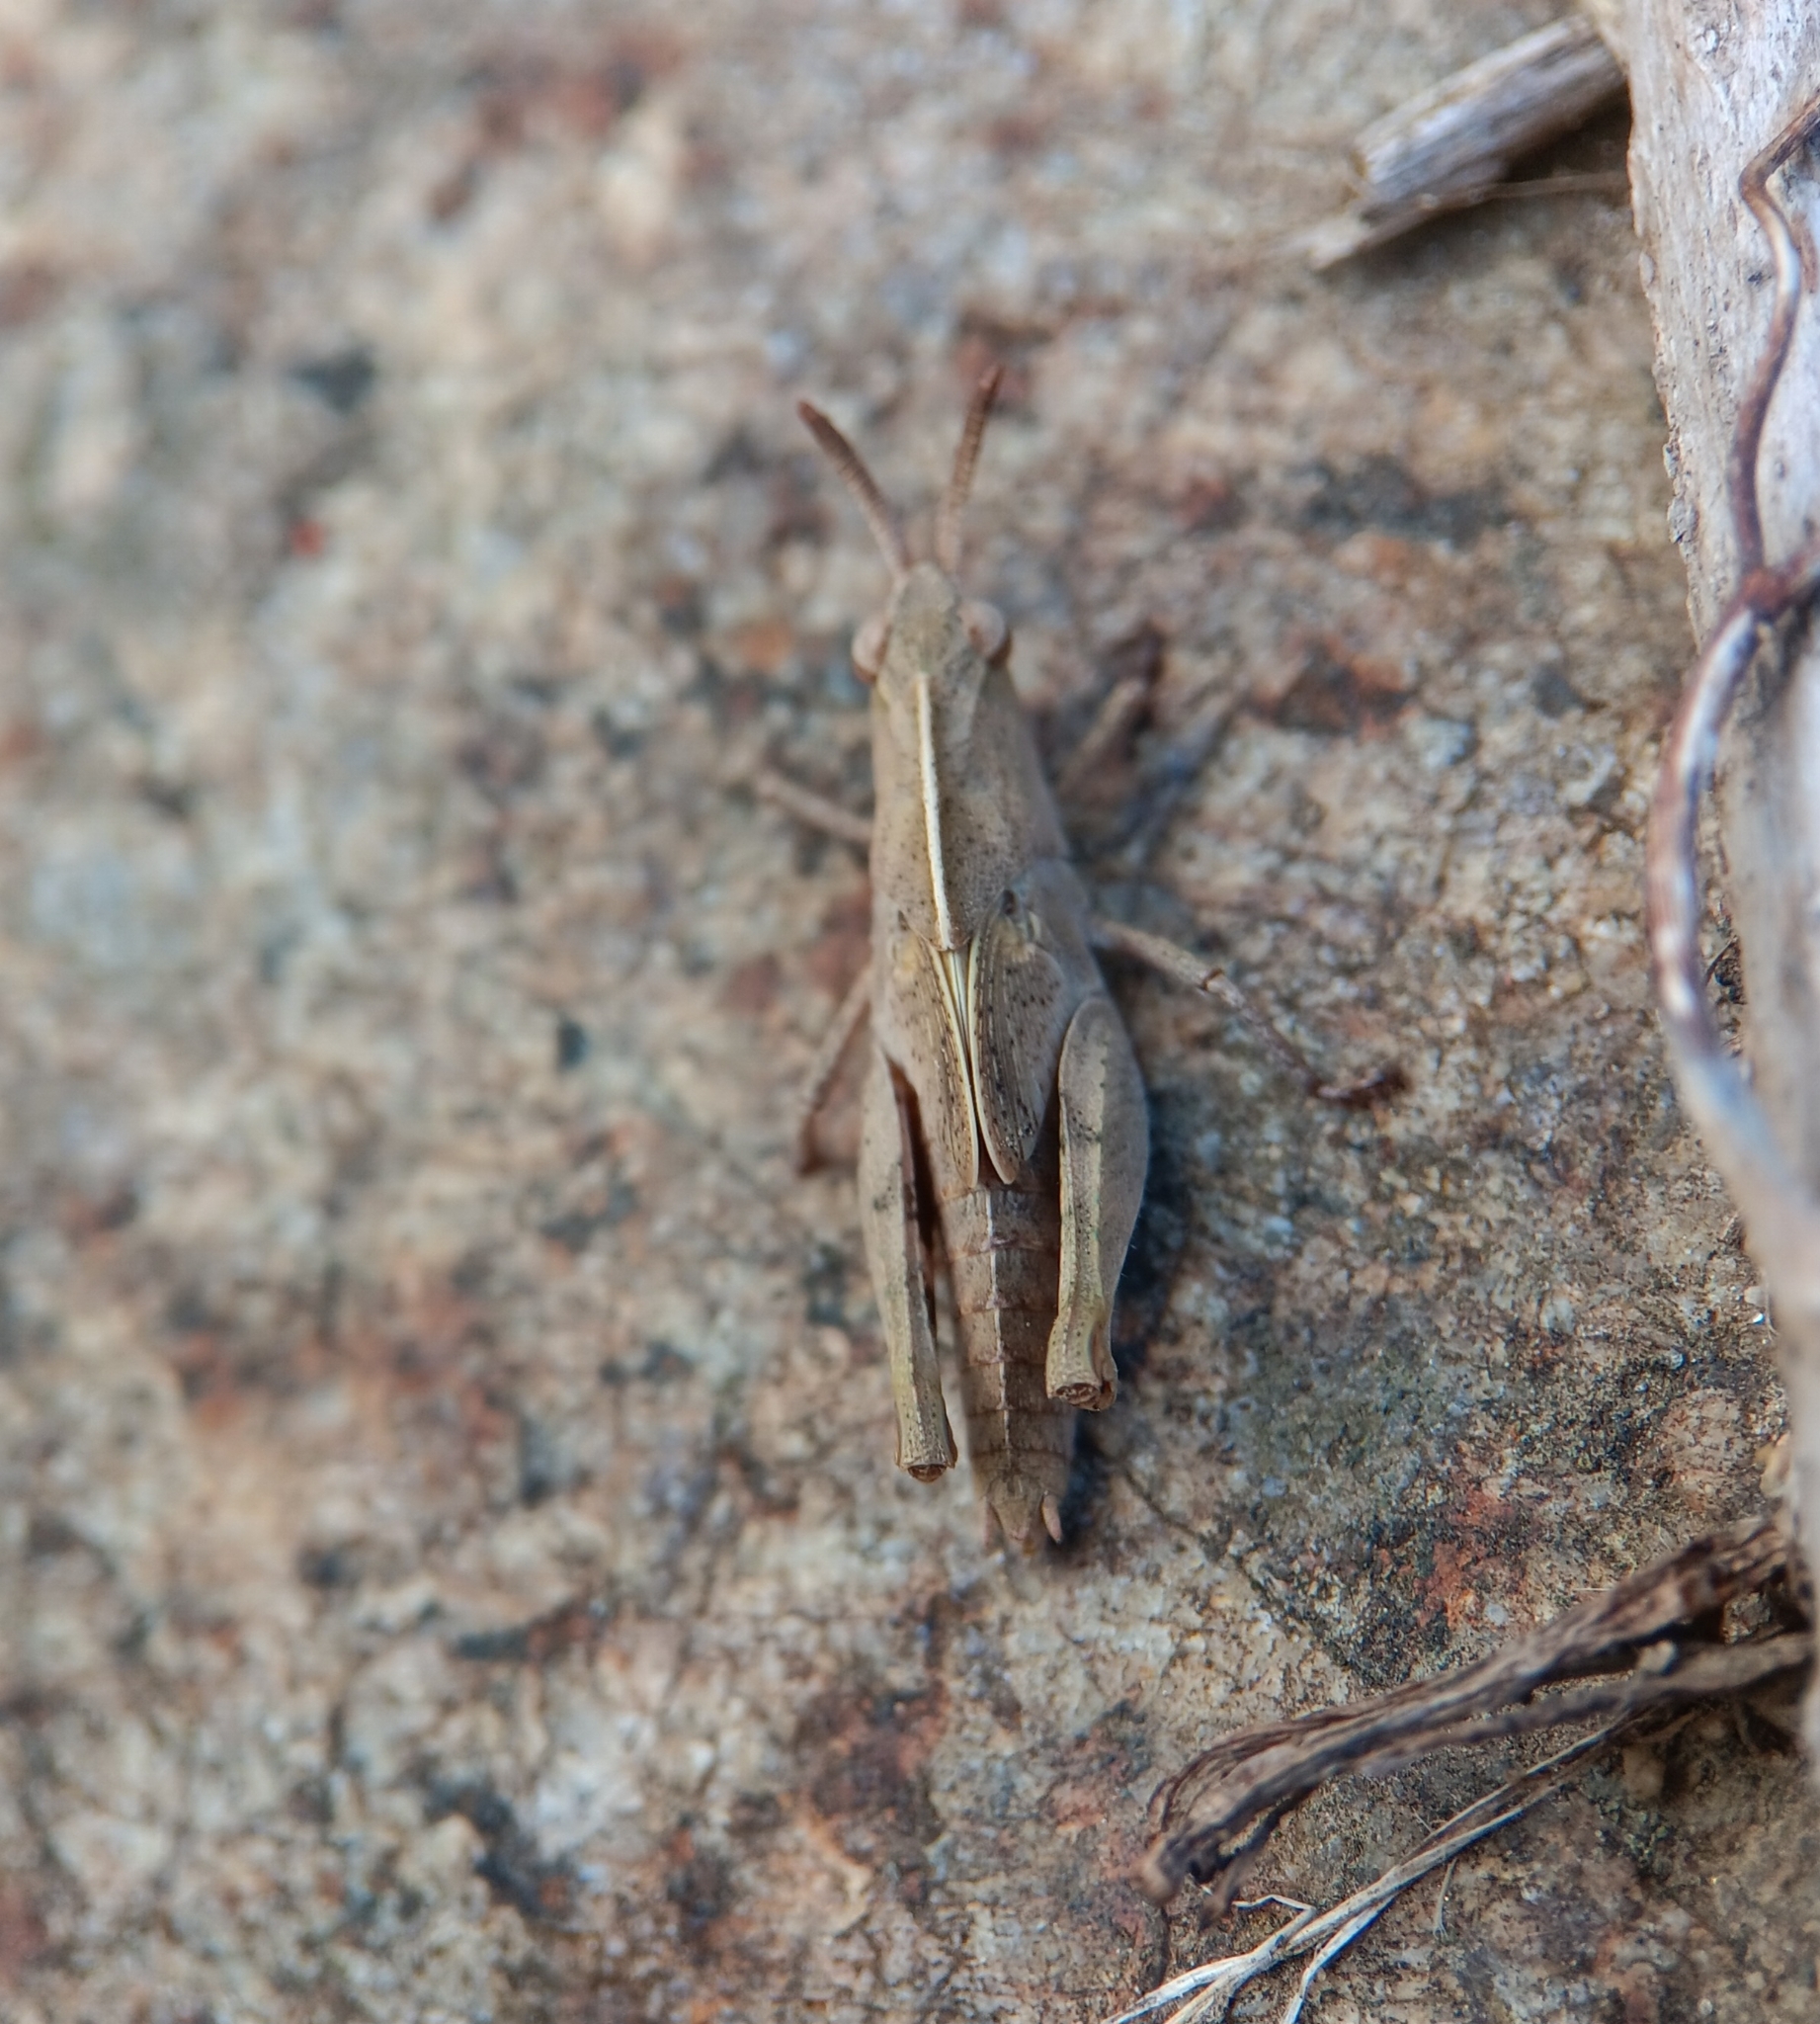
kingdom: Animalia
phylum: Arthropoda
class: Insecta
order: Orthoptera
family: Acrididae
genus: Chortophaga
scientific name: Chortophaga viridifasciata
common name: Green-striped grasshopper
